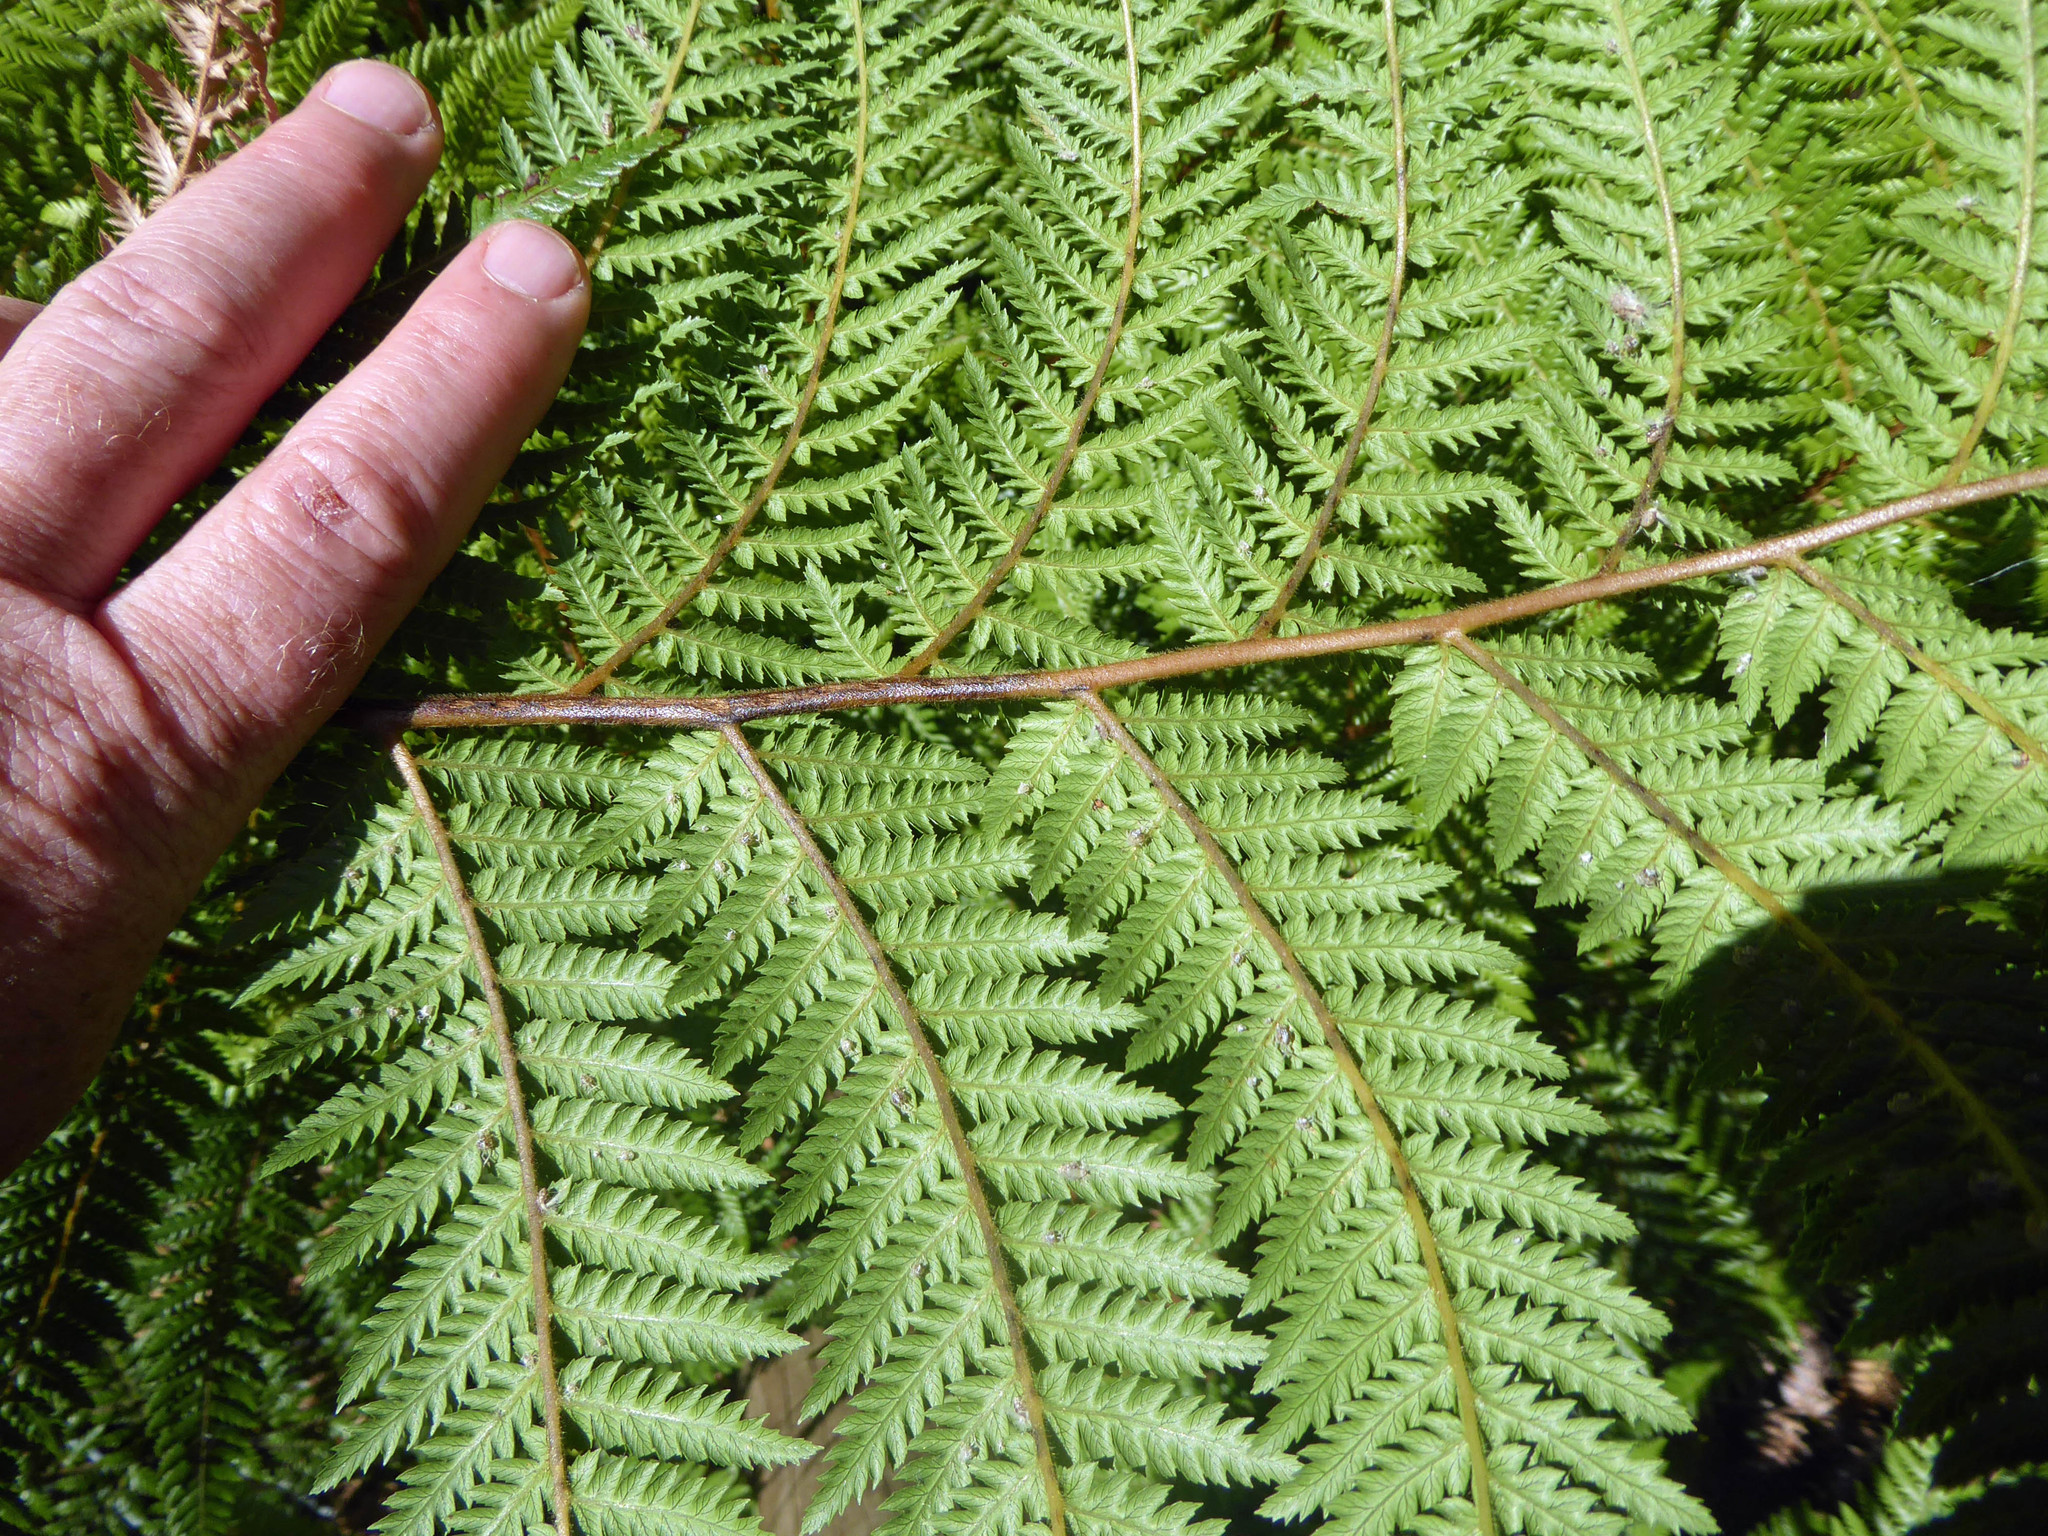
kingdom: Plantae
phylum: Tracheophyta
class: Polypodiopsida
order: Cyatheales
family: Dicksoniaceae
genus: Dicksonia
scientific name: Dicksonia fibrosa
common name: Golden tree fern
